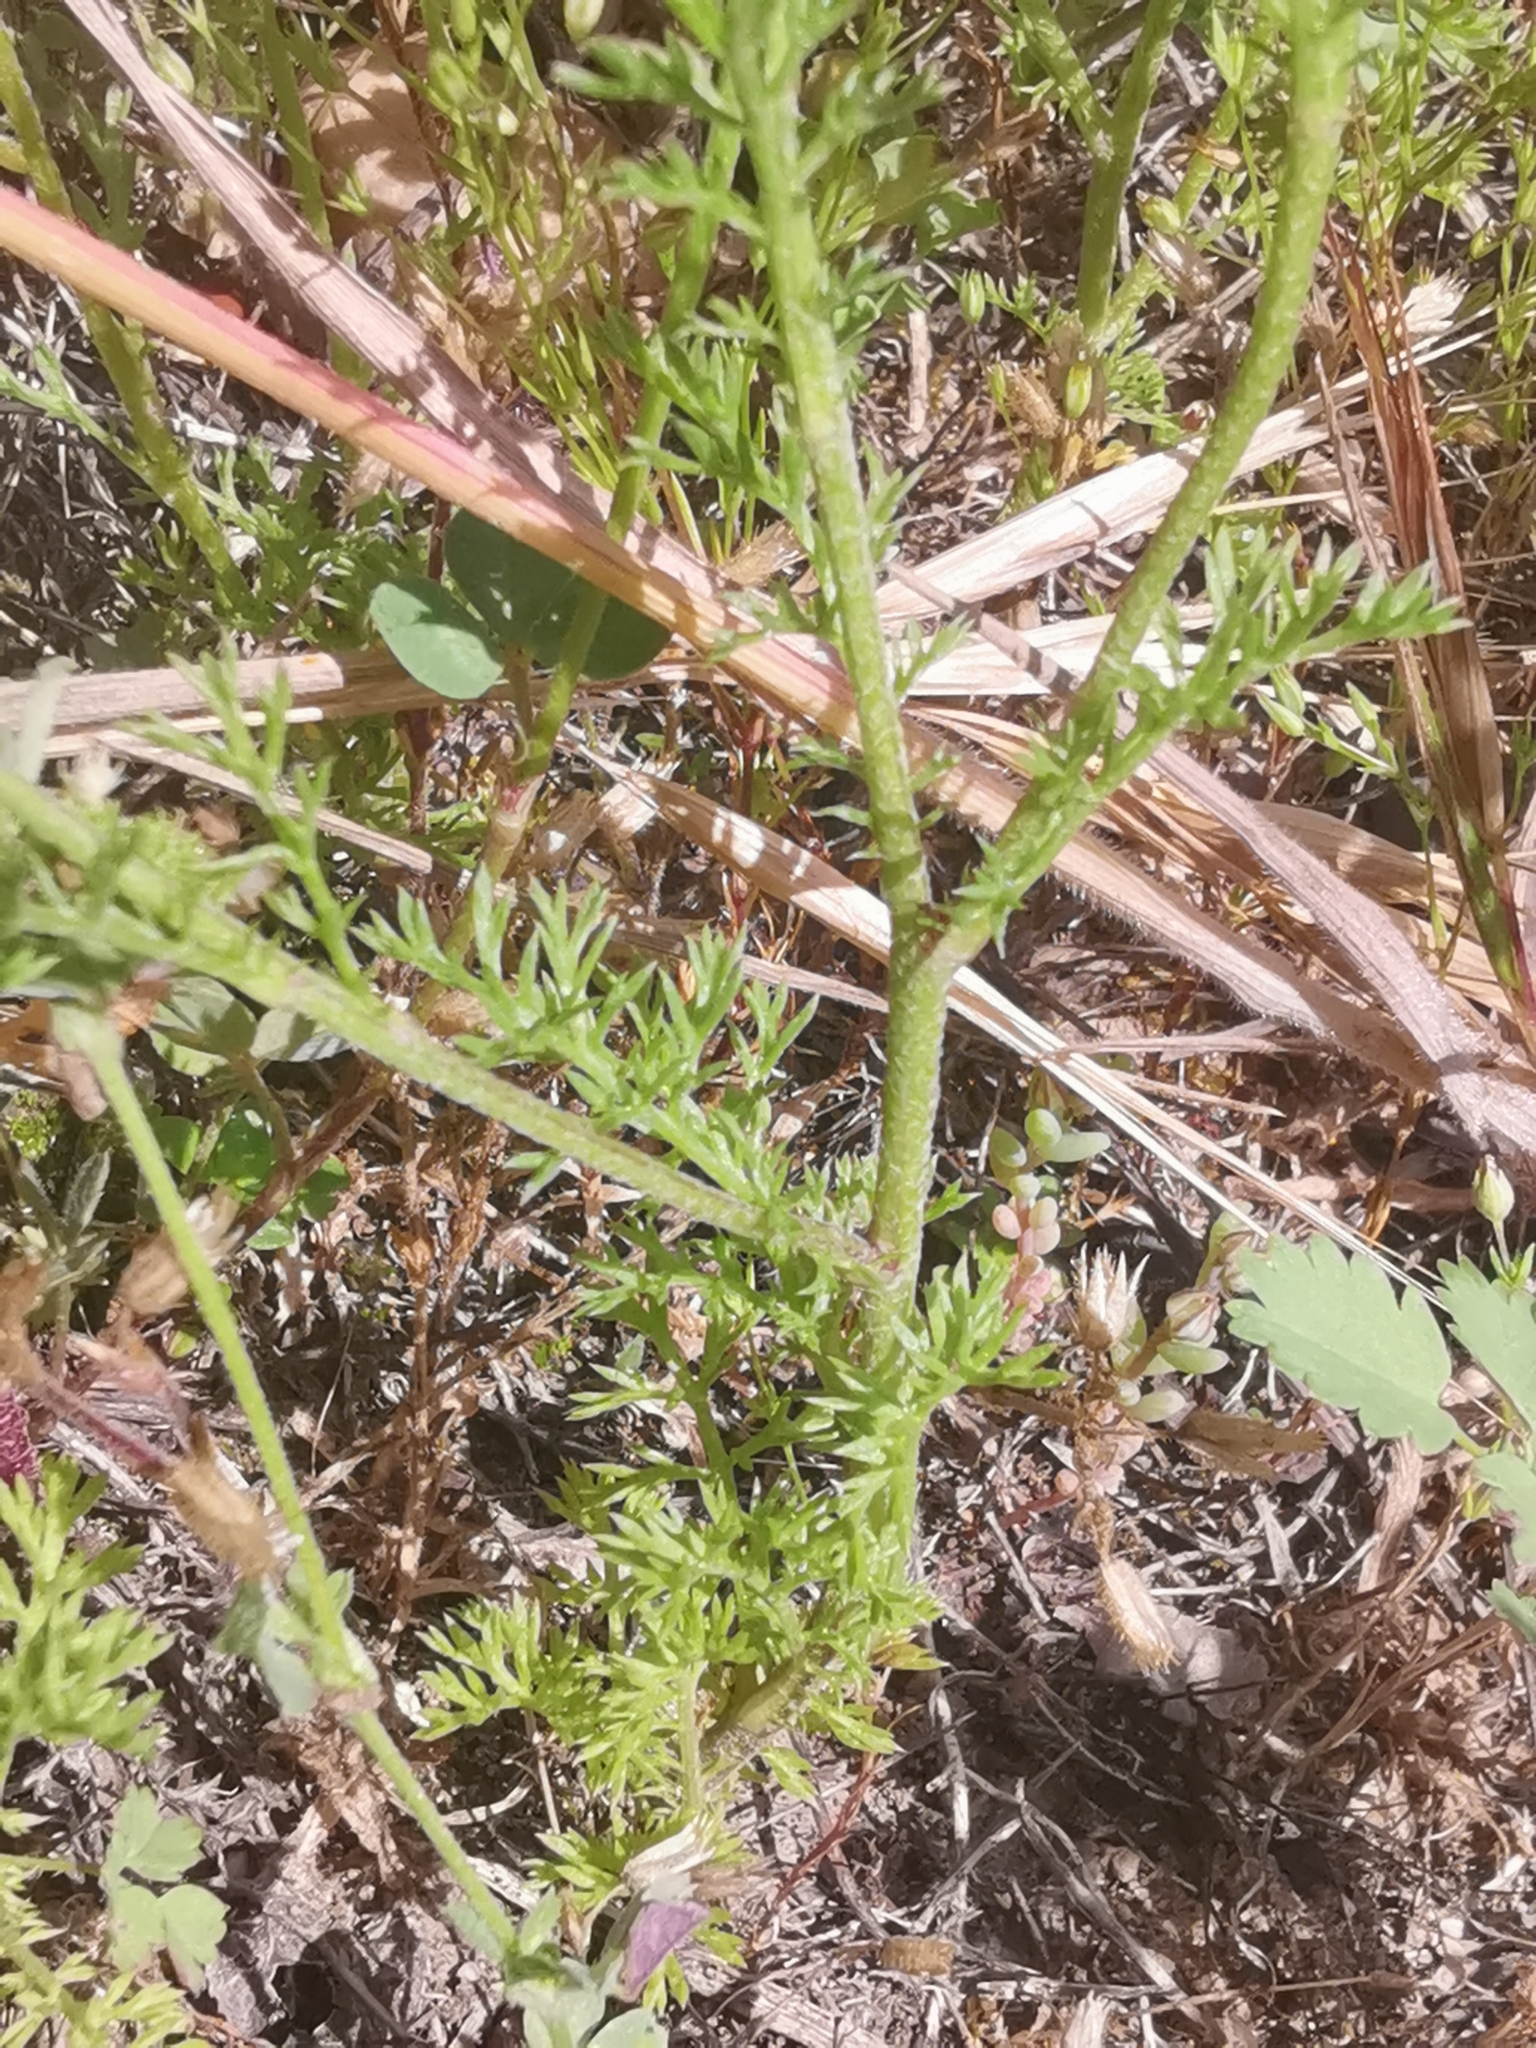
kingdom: Plantae
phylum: Tracheophyta
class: Magnoliopsida
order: Asterales
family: Asteraceae
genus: Matricaria
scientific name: Matricaria chamomilla
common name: Scented mayweed
